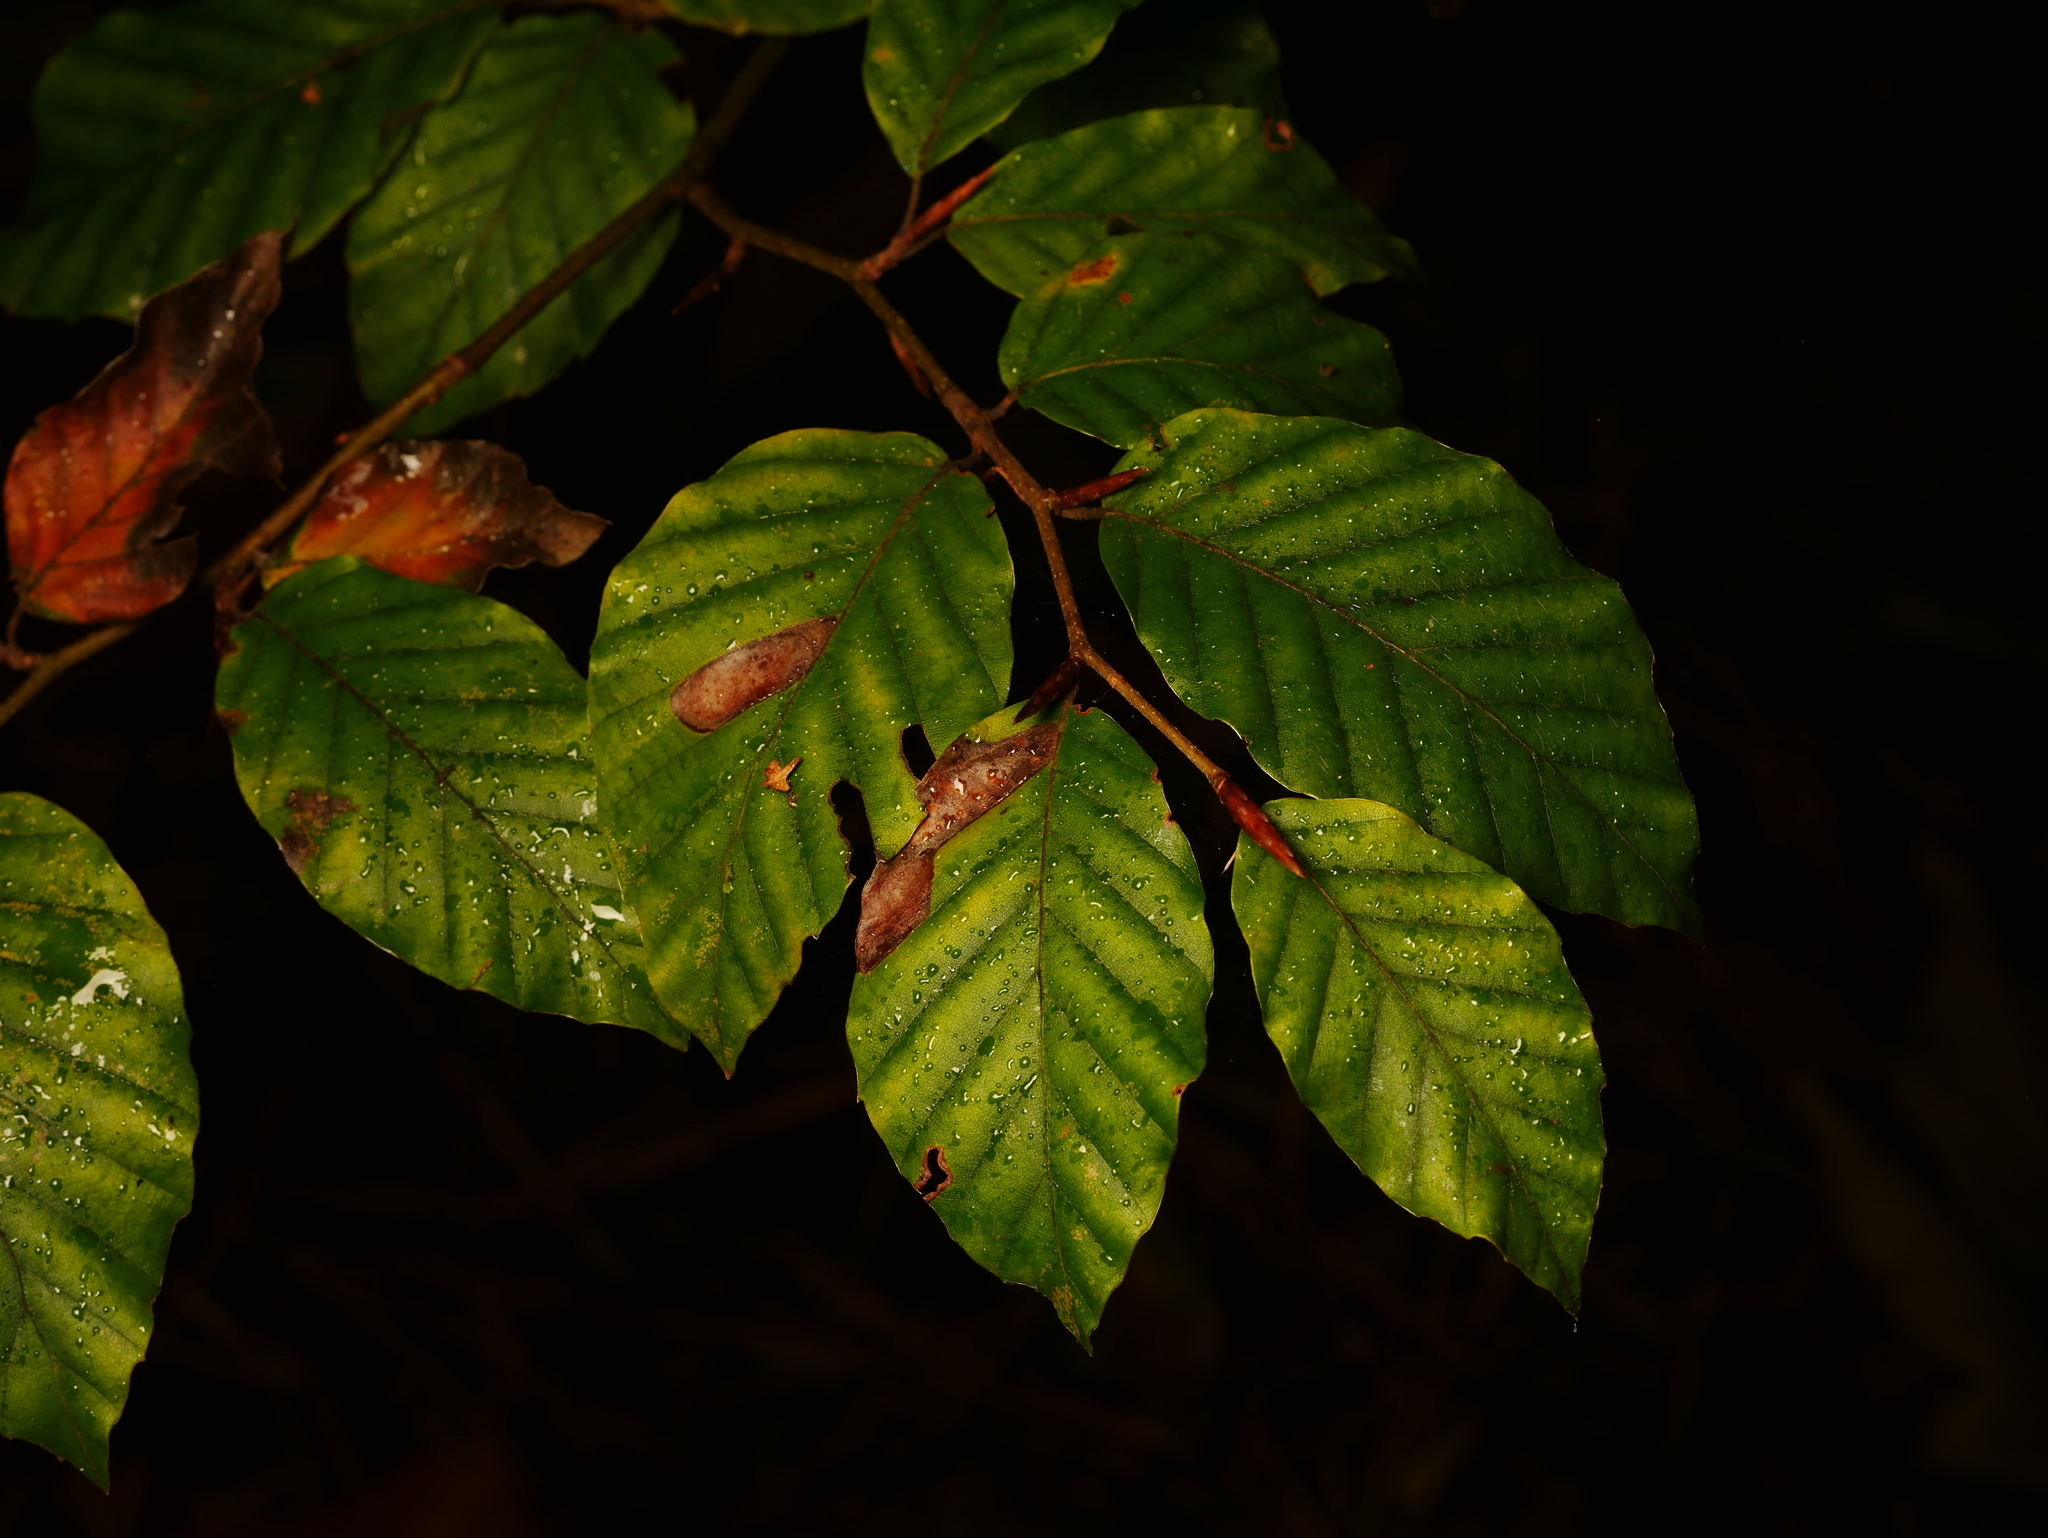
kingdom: Plantae
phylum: Tracheophyta
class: Magnoliopsida
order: Fagales
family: Fagaceae
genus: Fagus
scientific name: Fagus sylvatica
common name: Beech
